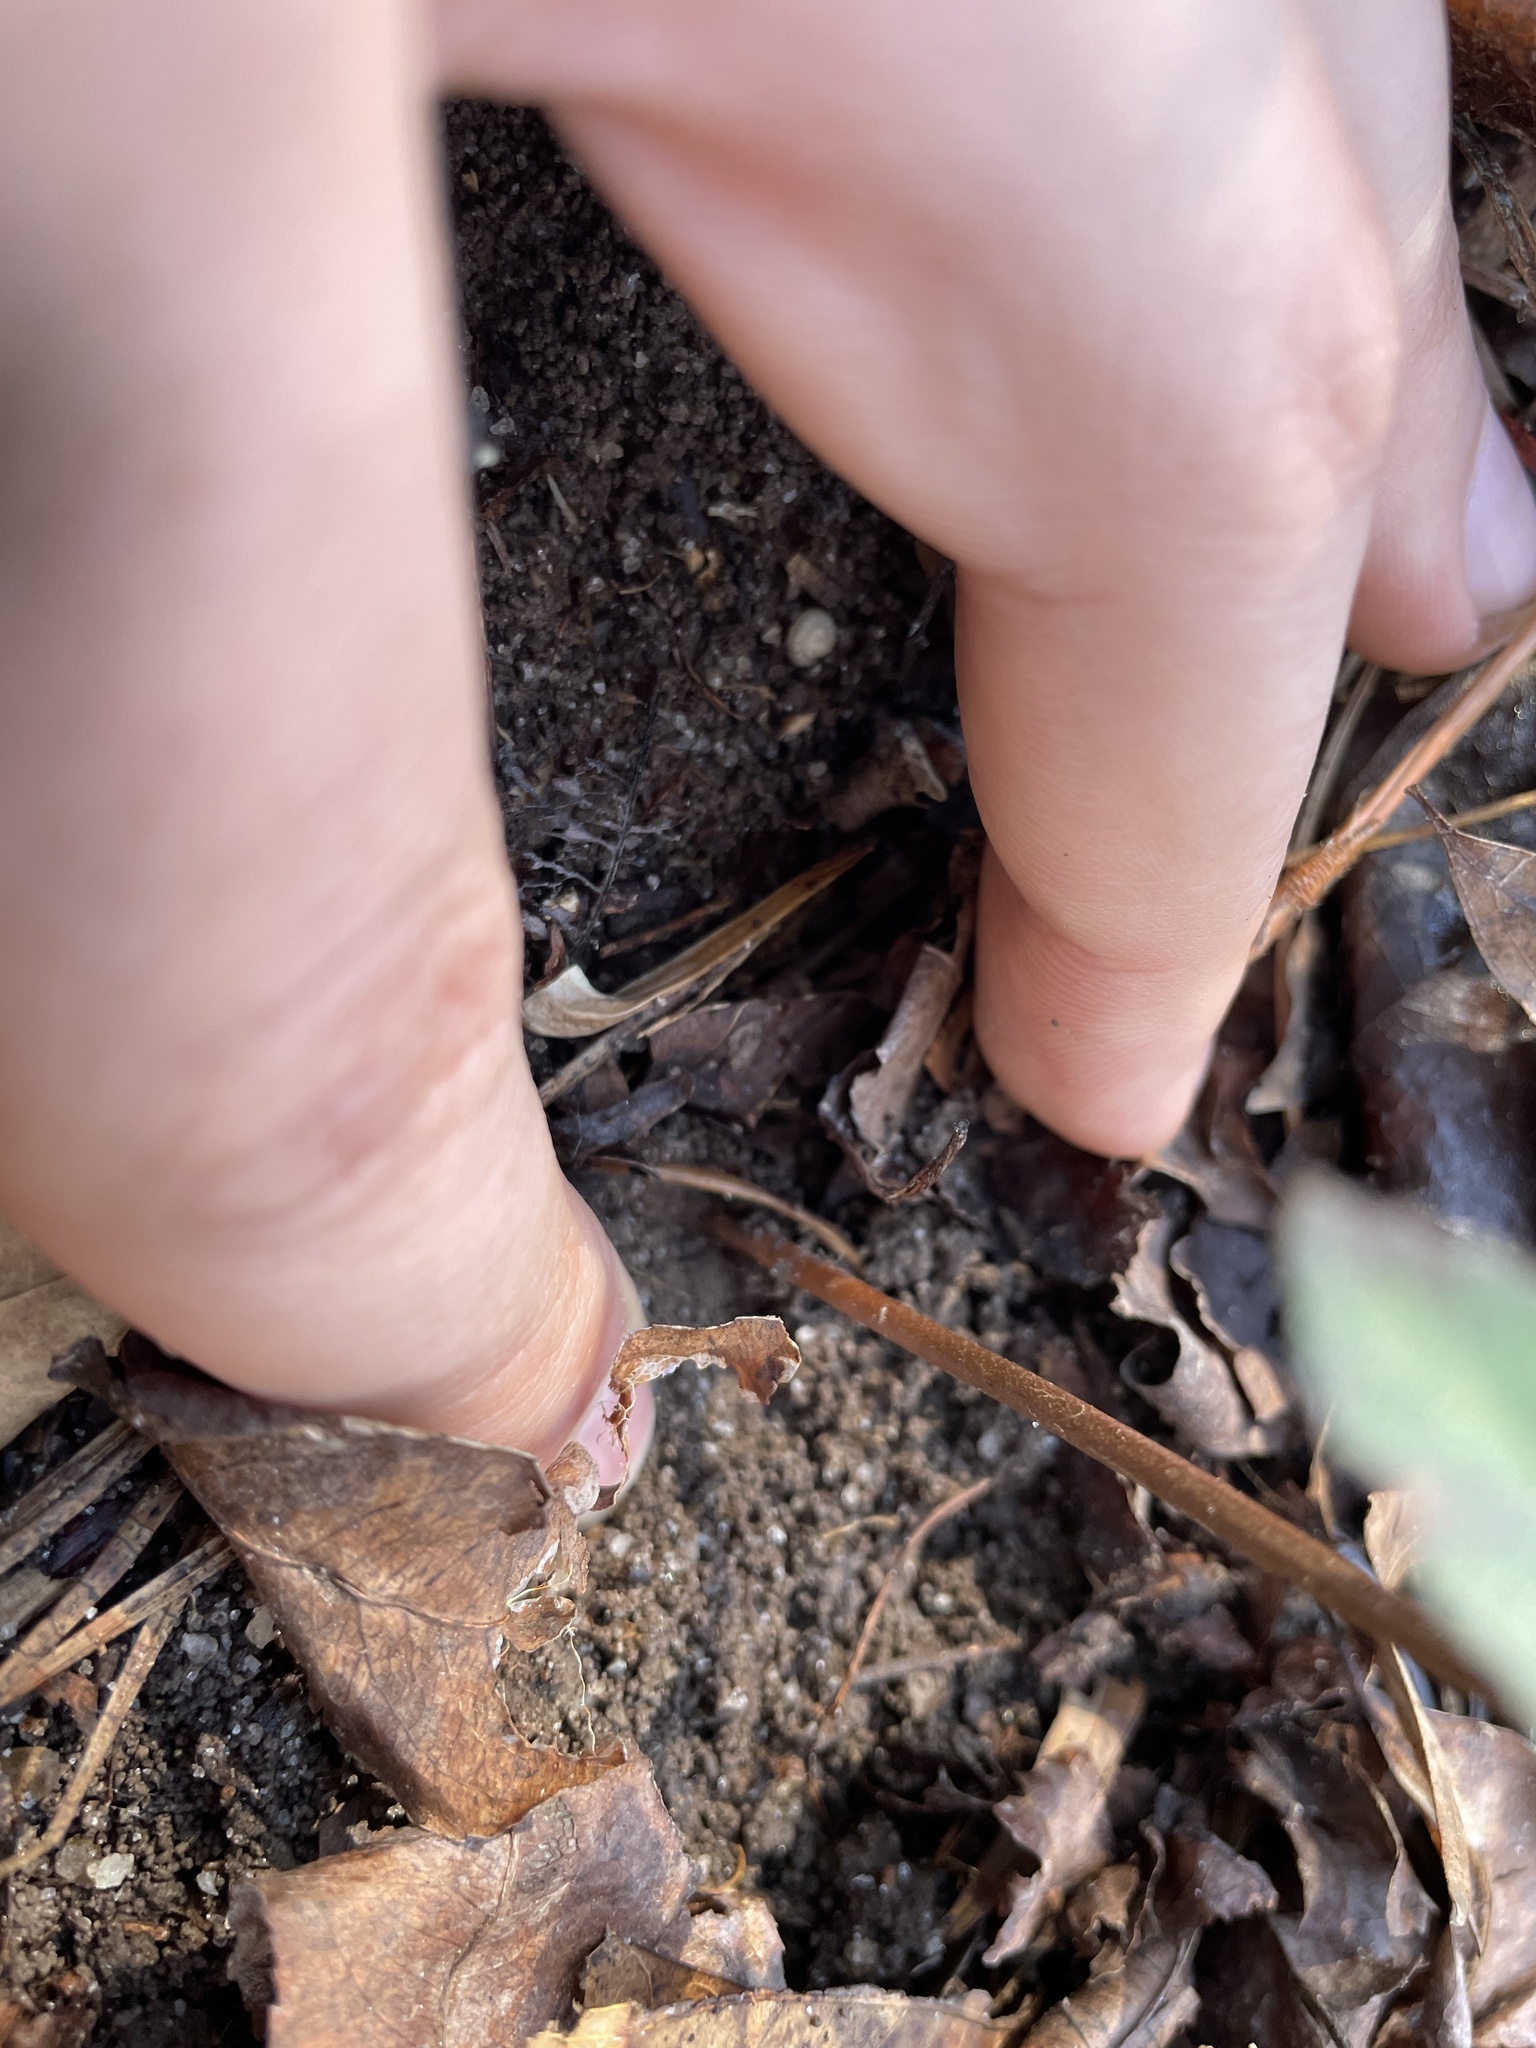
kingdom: Plantae
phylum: Tracheophyta
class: Polypodiopsida
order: Ophioglossales
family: Ophioglossaceae
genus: Sceptridium
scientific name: Sceptridium biternatum
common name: Sparse-lobed grapefern
